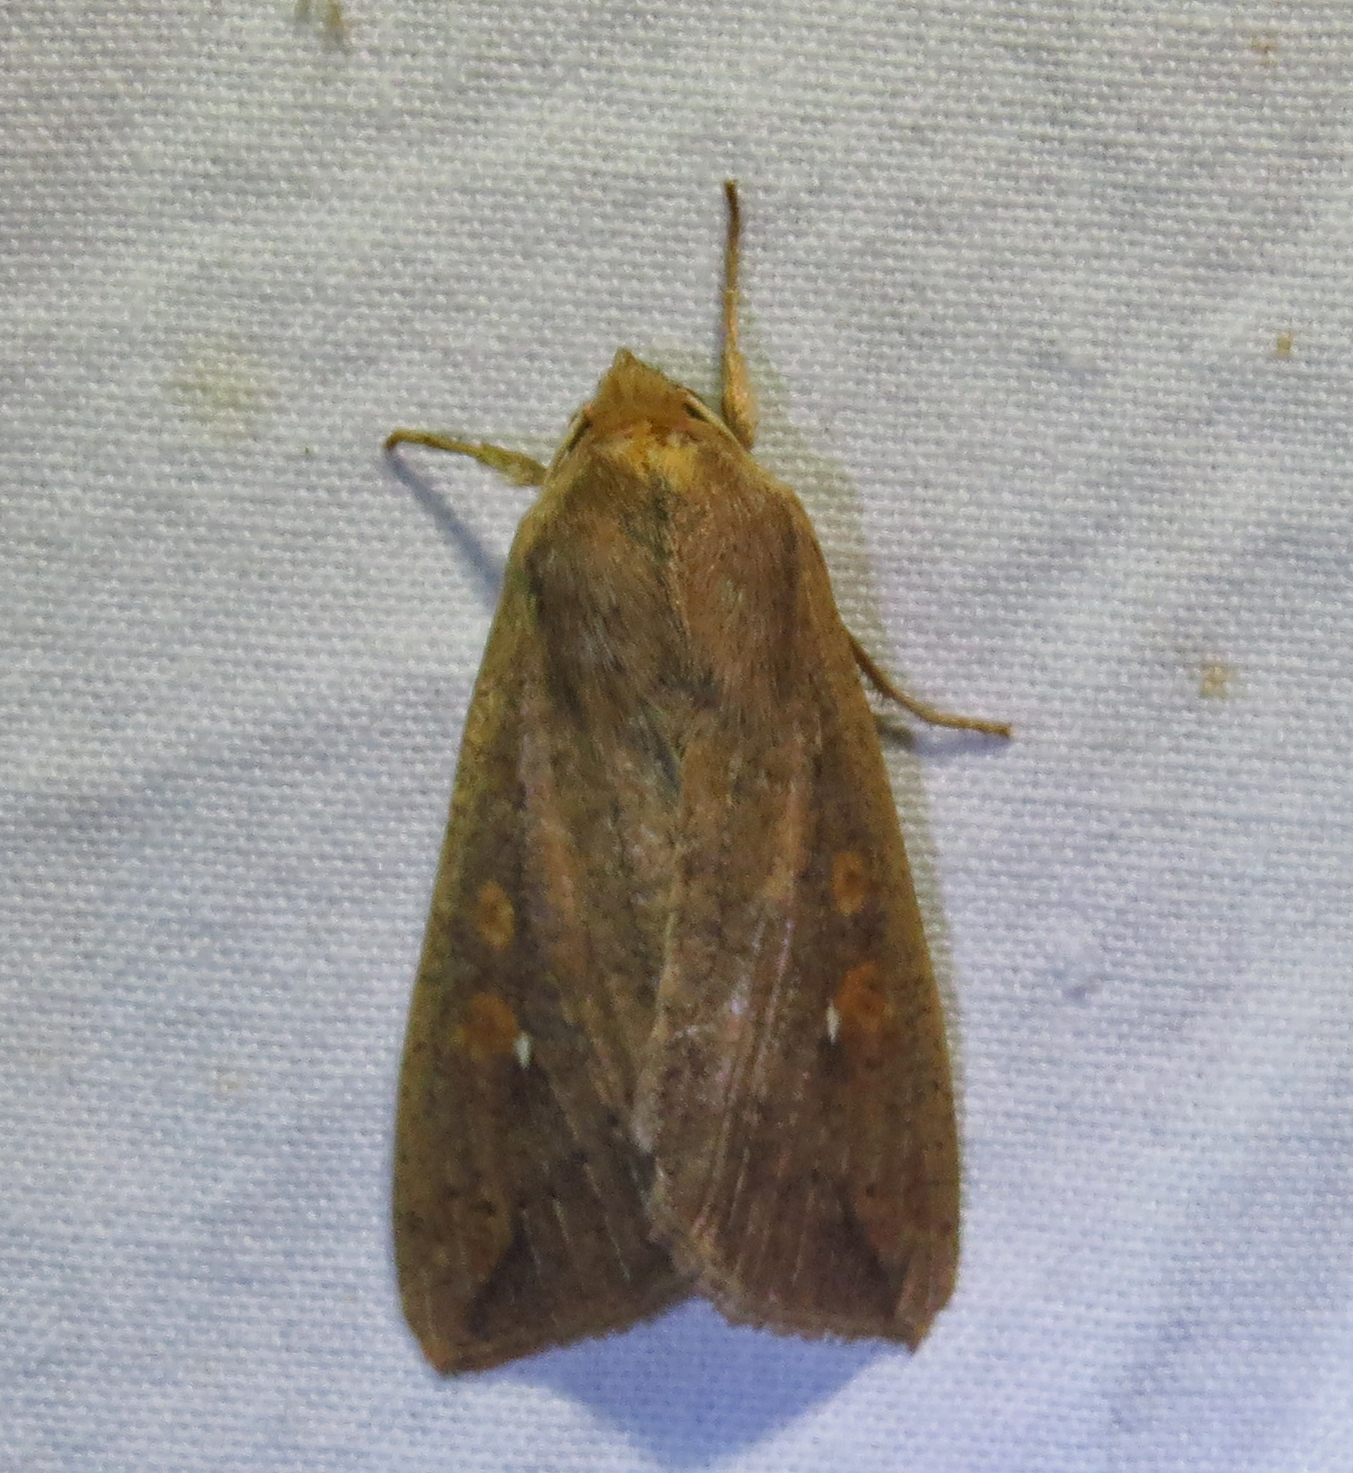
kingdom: Animalia
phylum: Arthropoda
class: Insecta
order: Lepidoptera
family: Noctuidae
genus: Mythimna
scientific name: Mythimna unipuncta
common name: White-speck
